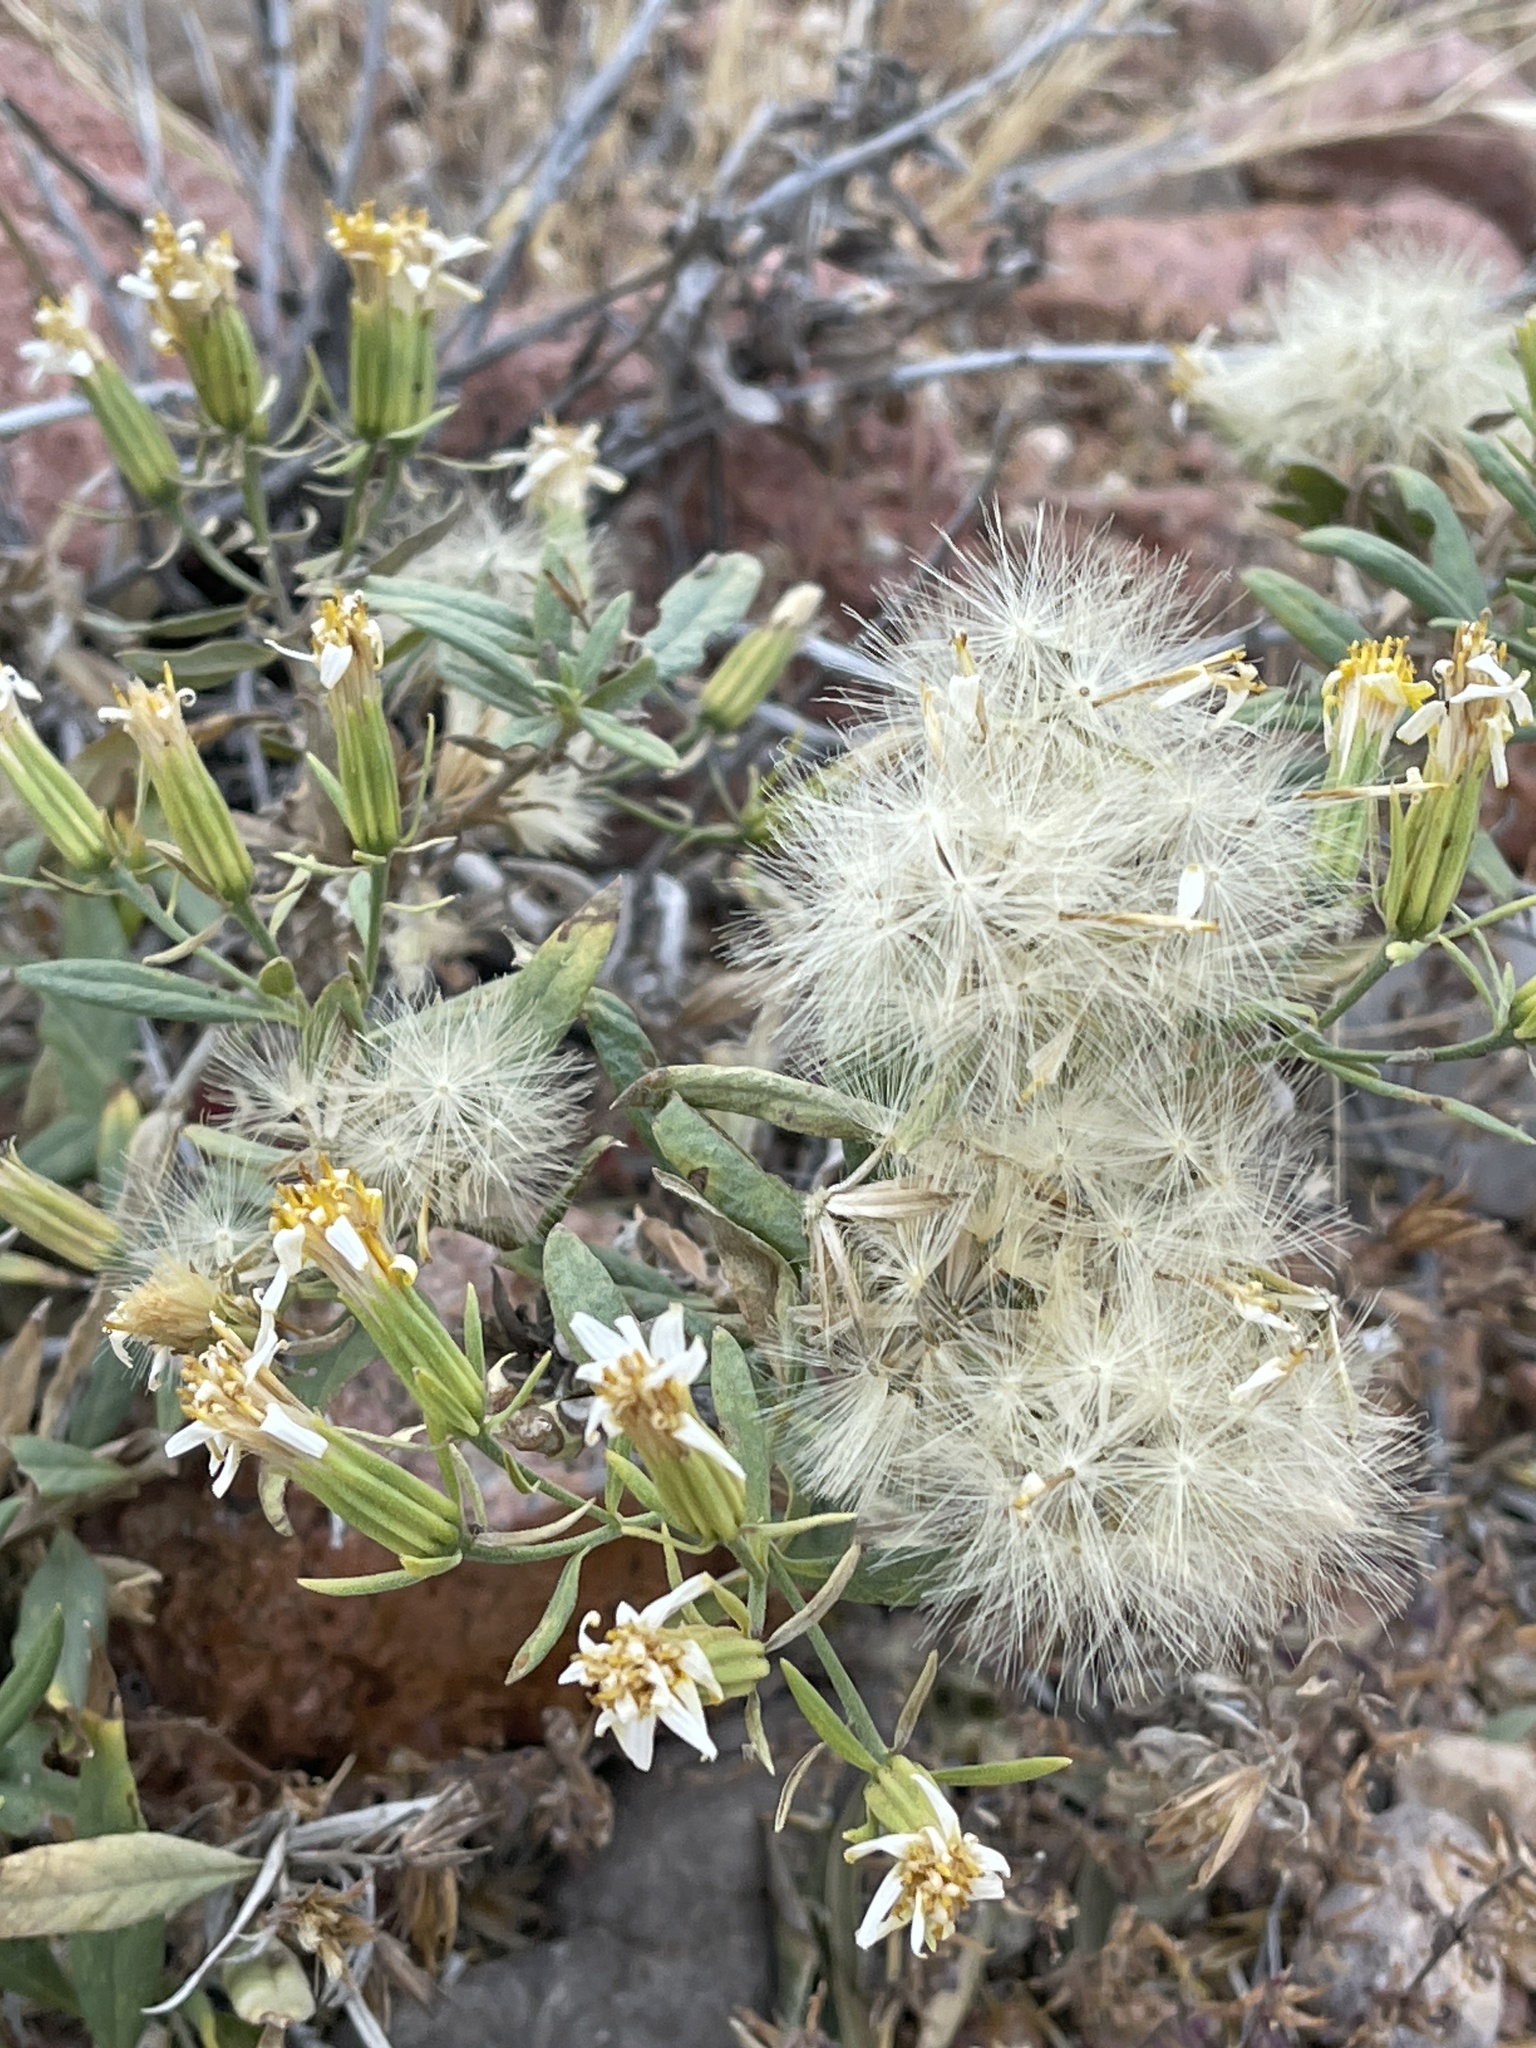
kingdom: Plantae
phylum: Tracheophyta
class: Magnoliopsida
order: Asterales
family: Asteraceae
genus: Trixis
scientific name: Trixis californica
